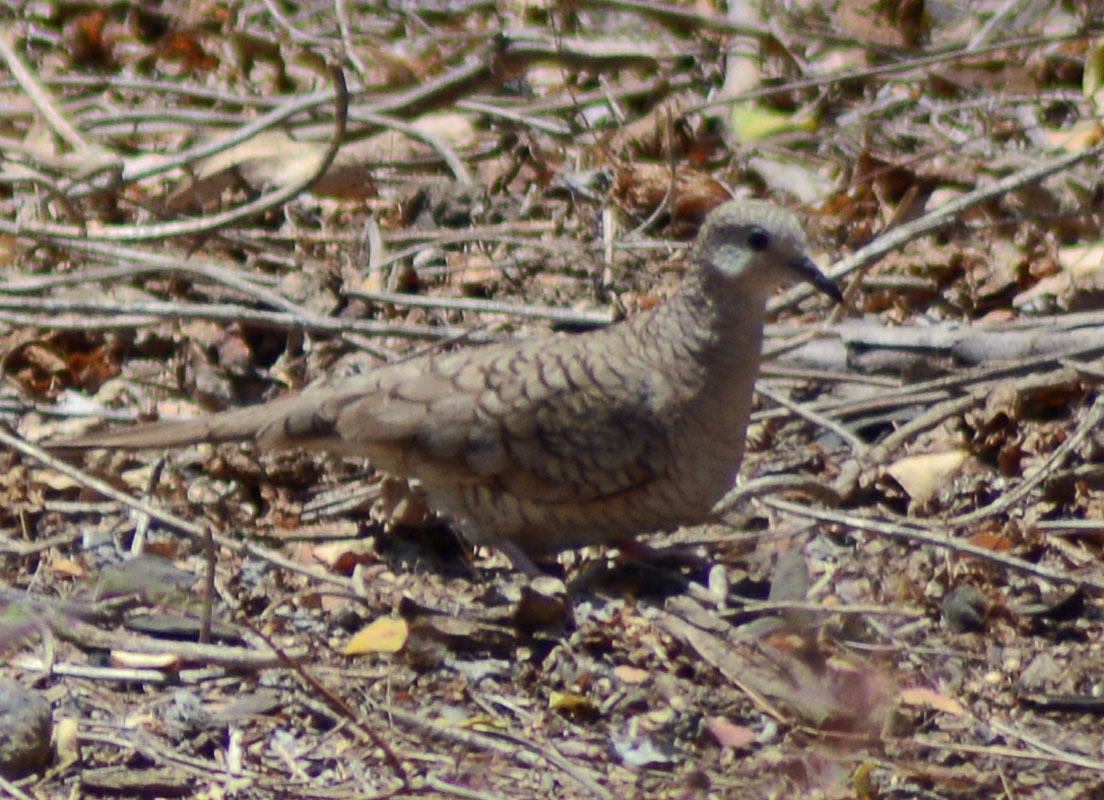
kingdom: Animalia
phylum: Chordata
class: Aves
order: Columbiformes
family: Columbidae
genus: Columbina
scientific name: Columbina inca
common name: Inca dove
